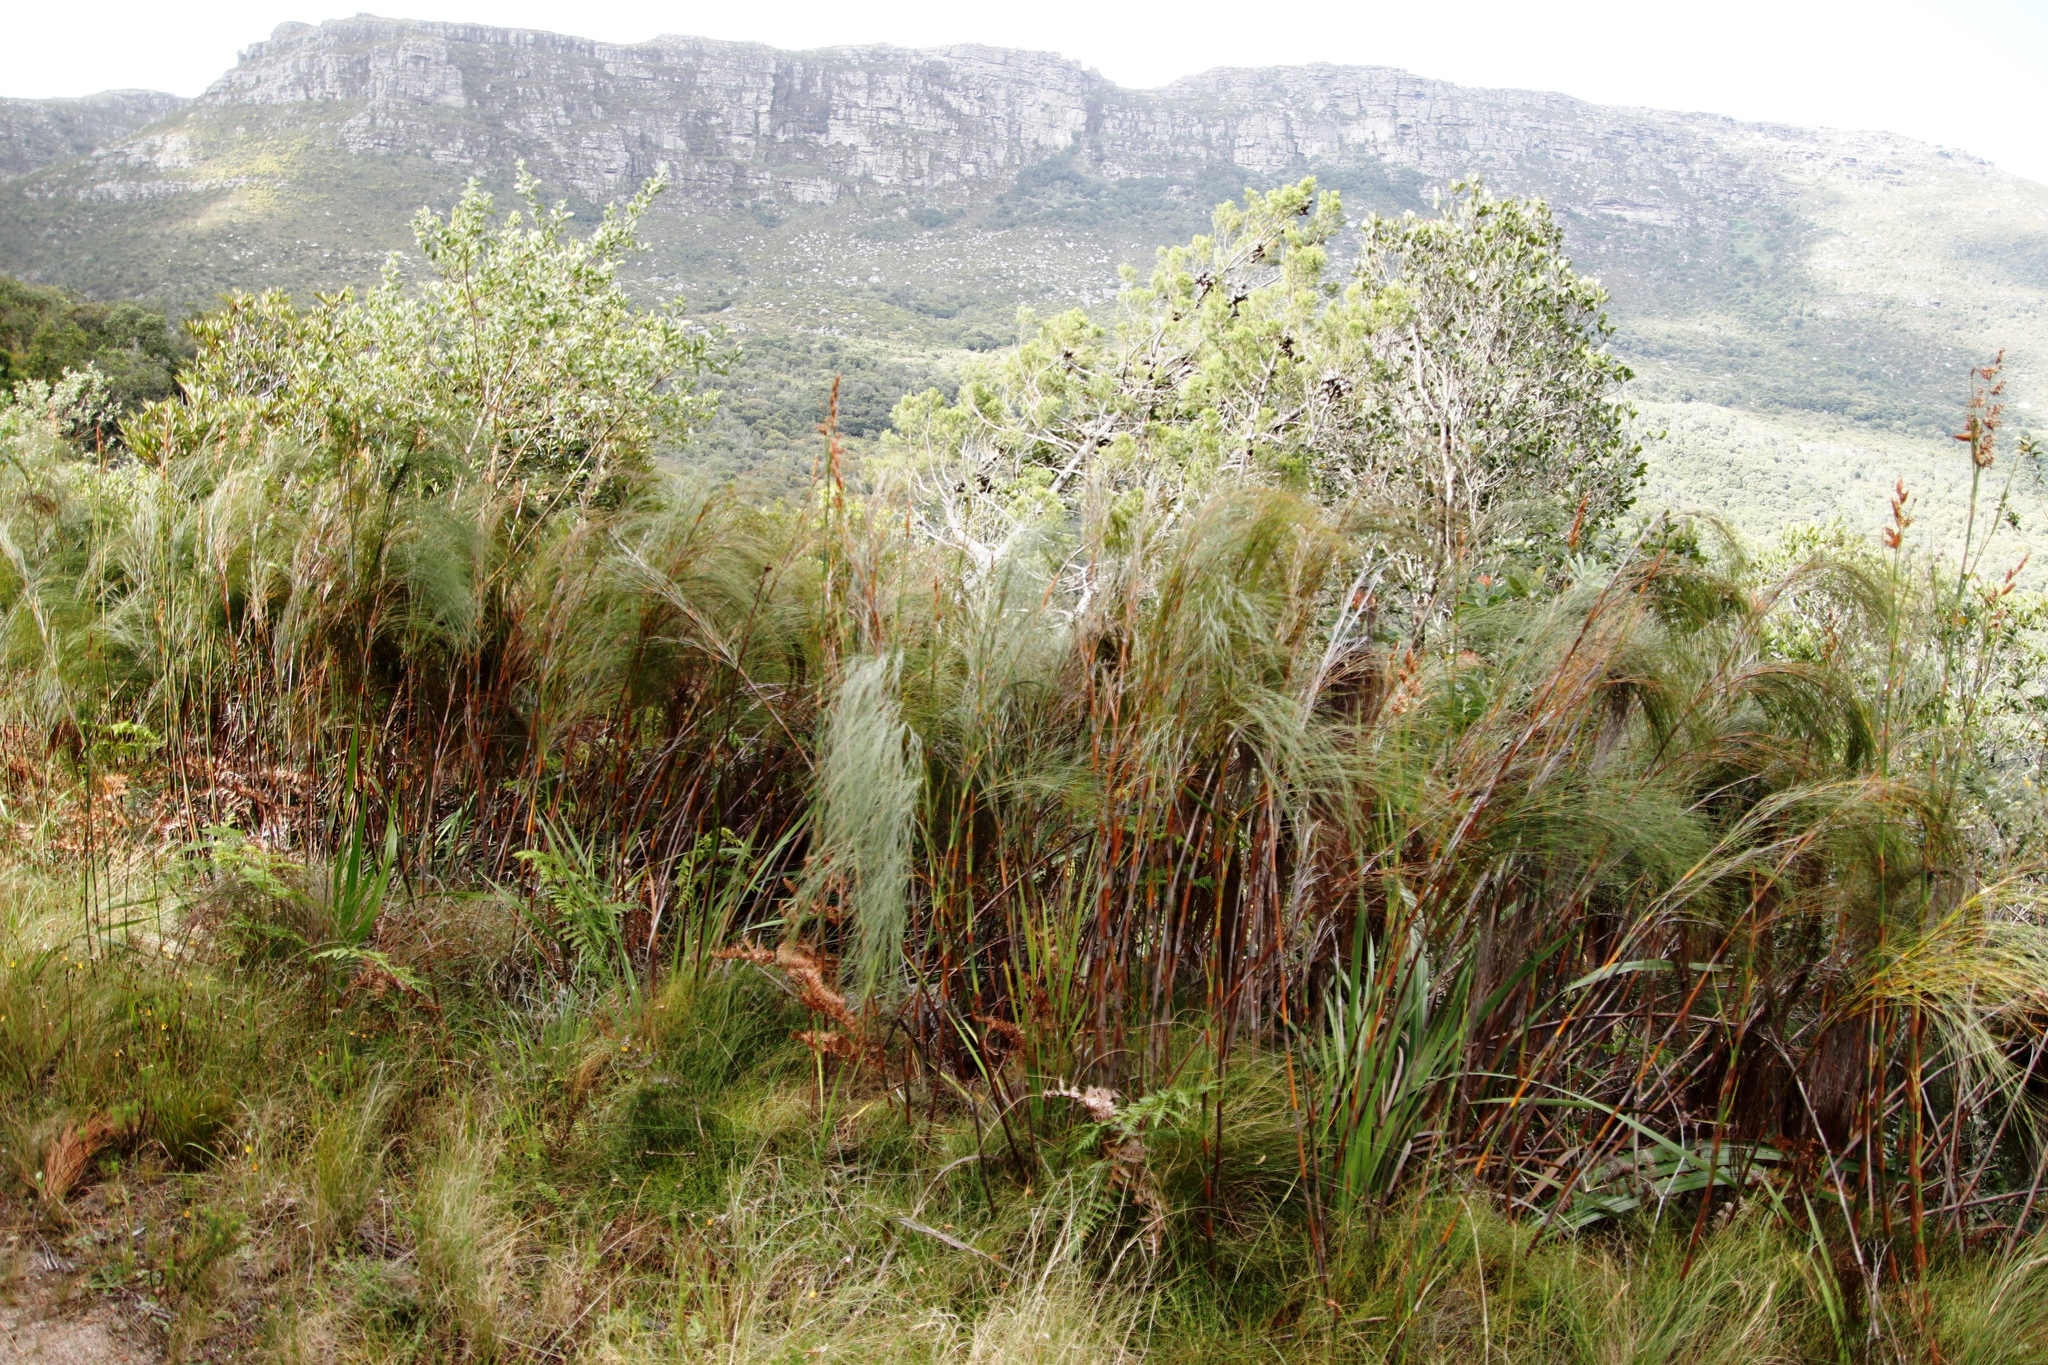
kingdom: Plantae
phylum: Tracheophyta
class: Pinopsida
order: Pinales
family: Cupressaceae
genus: Widdringtonia
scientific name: Widdringtonia nodiflora
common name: Cape cypress
